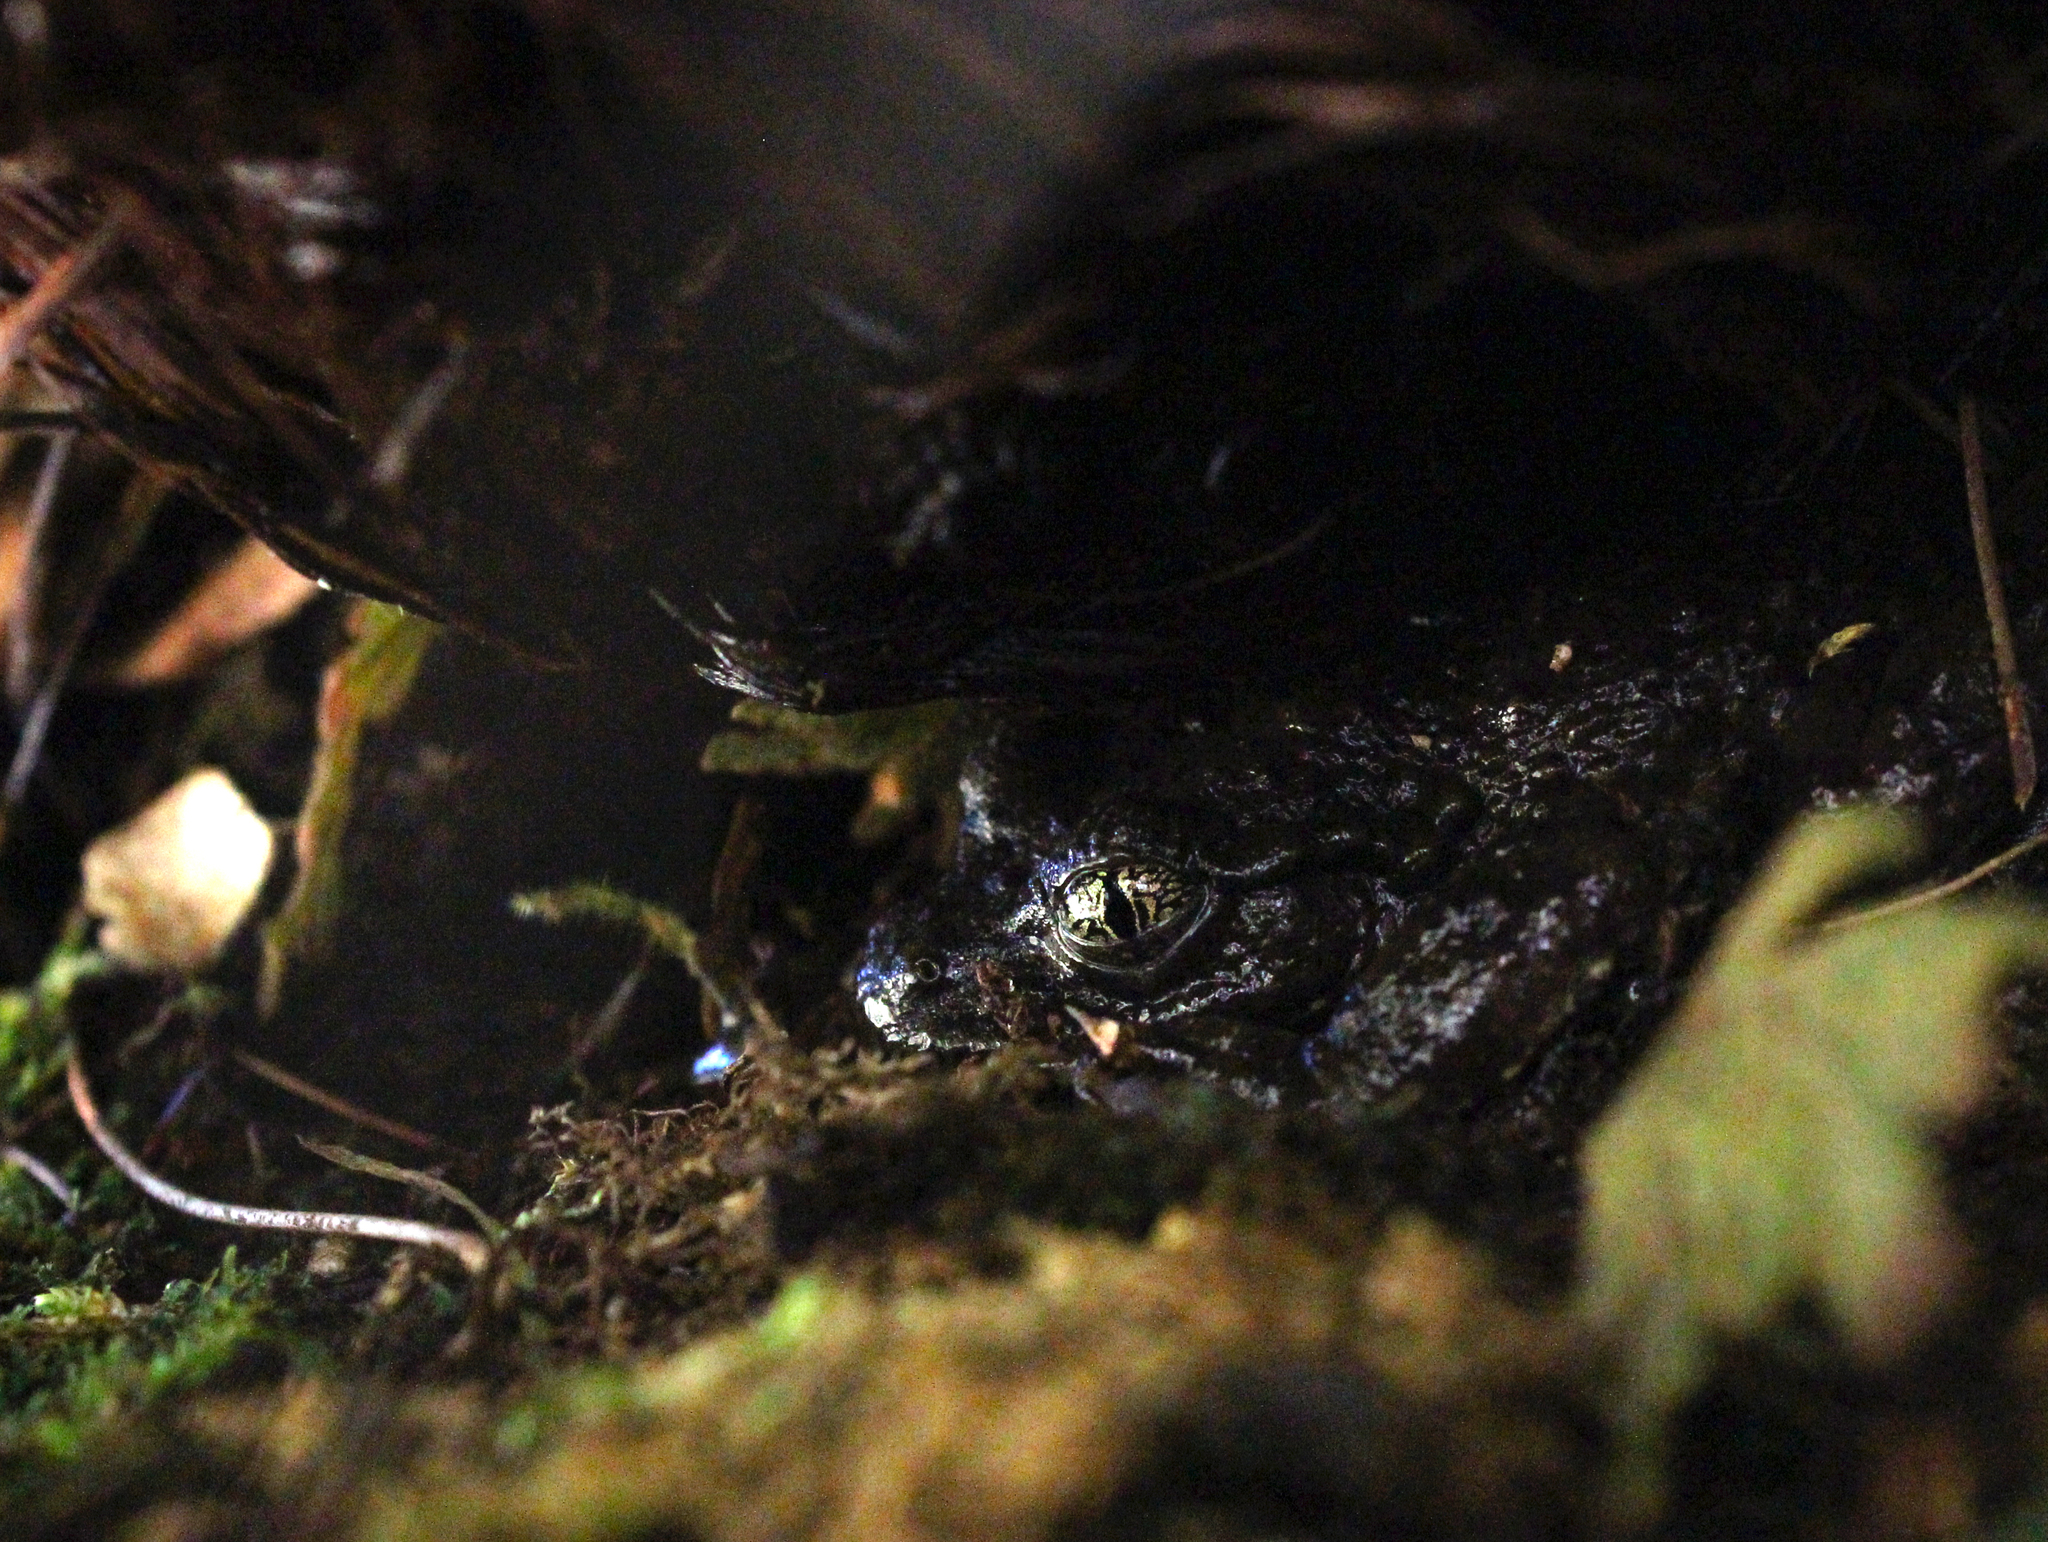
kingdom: Animalia
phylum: Chordata
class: Amphibia
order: Anura
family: Heleophrynidae
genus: Heleophryne
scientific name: Heleophryne rosei
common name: Table mountain ghost frog
